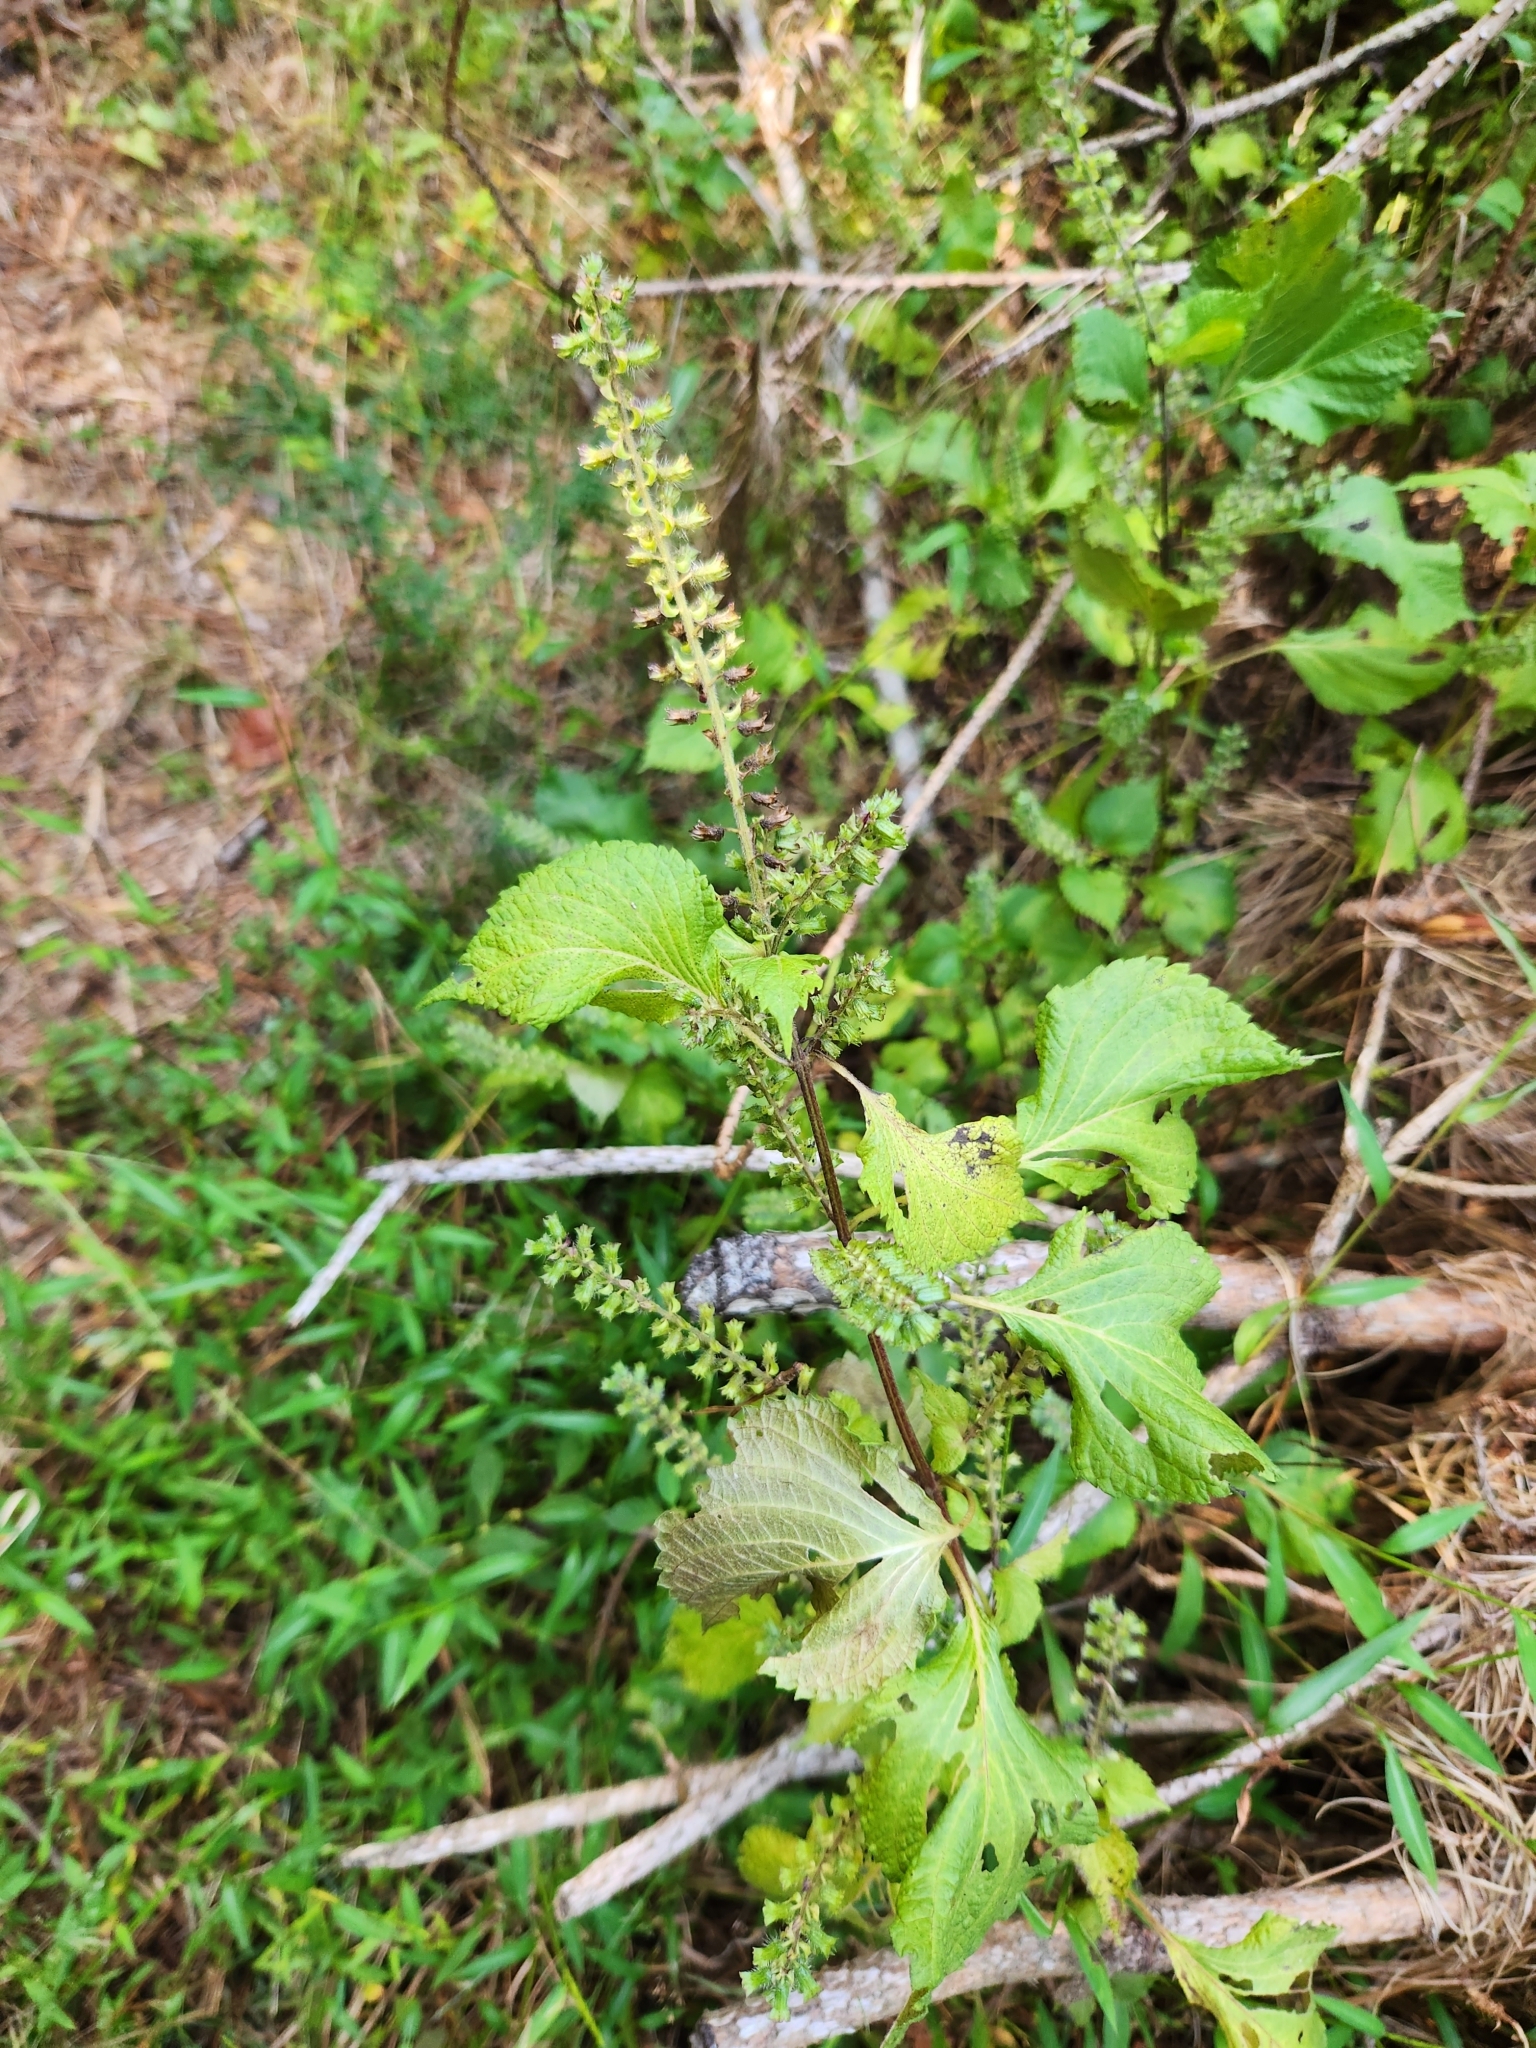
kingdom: Plantae
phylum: Tracheophyta
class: Magnoliopsida
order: Lamiales
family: Lamiaceae
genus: Perilla
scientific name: Perilla frutescens
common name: Perilla
